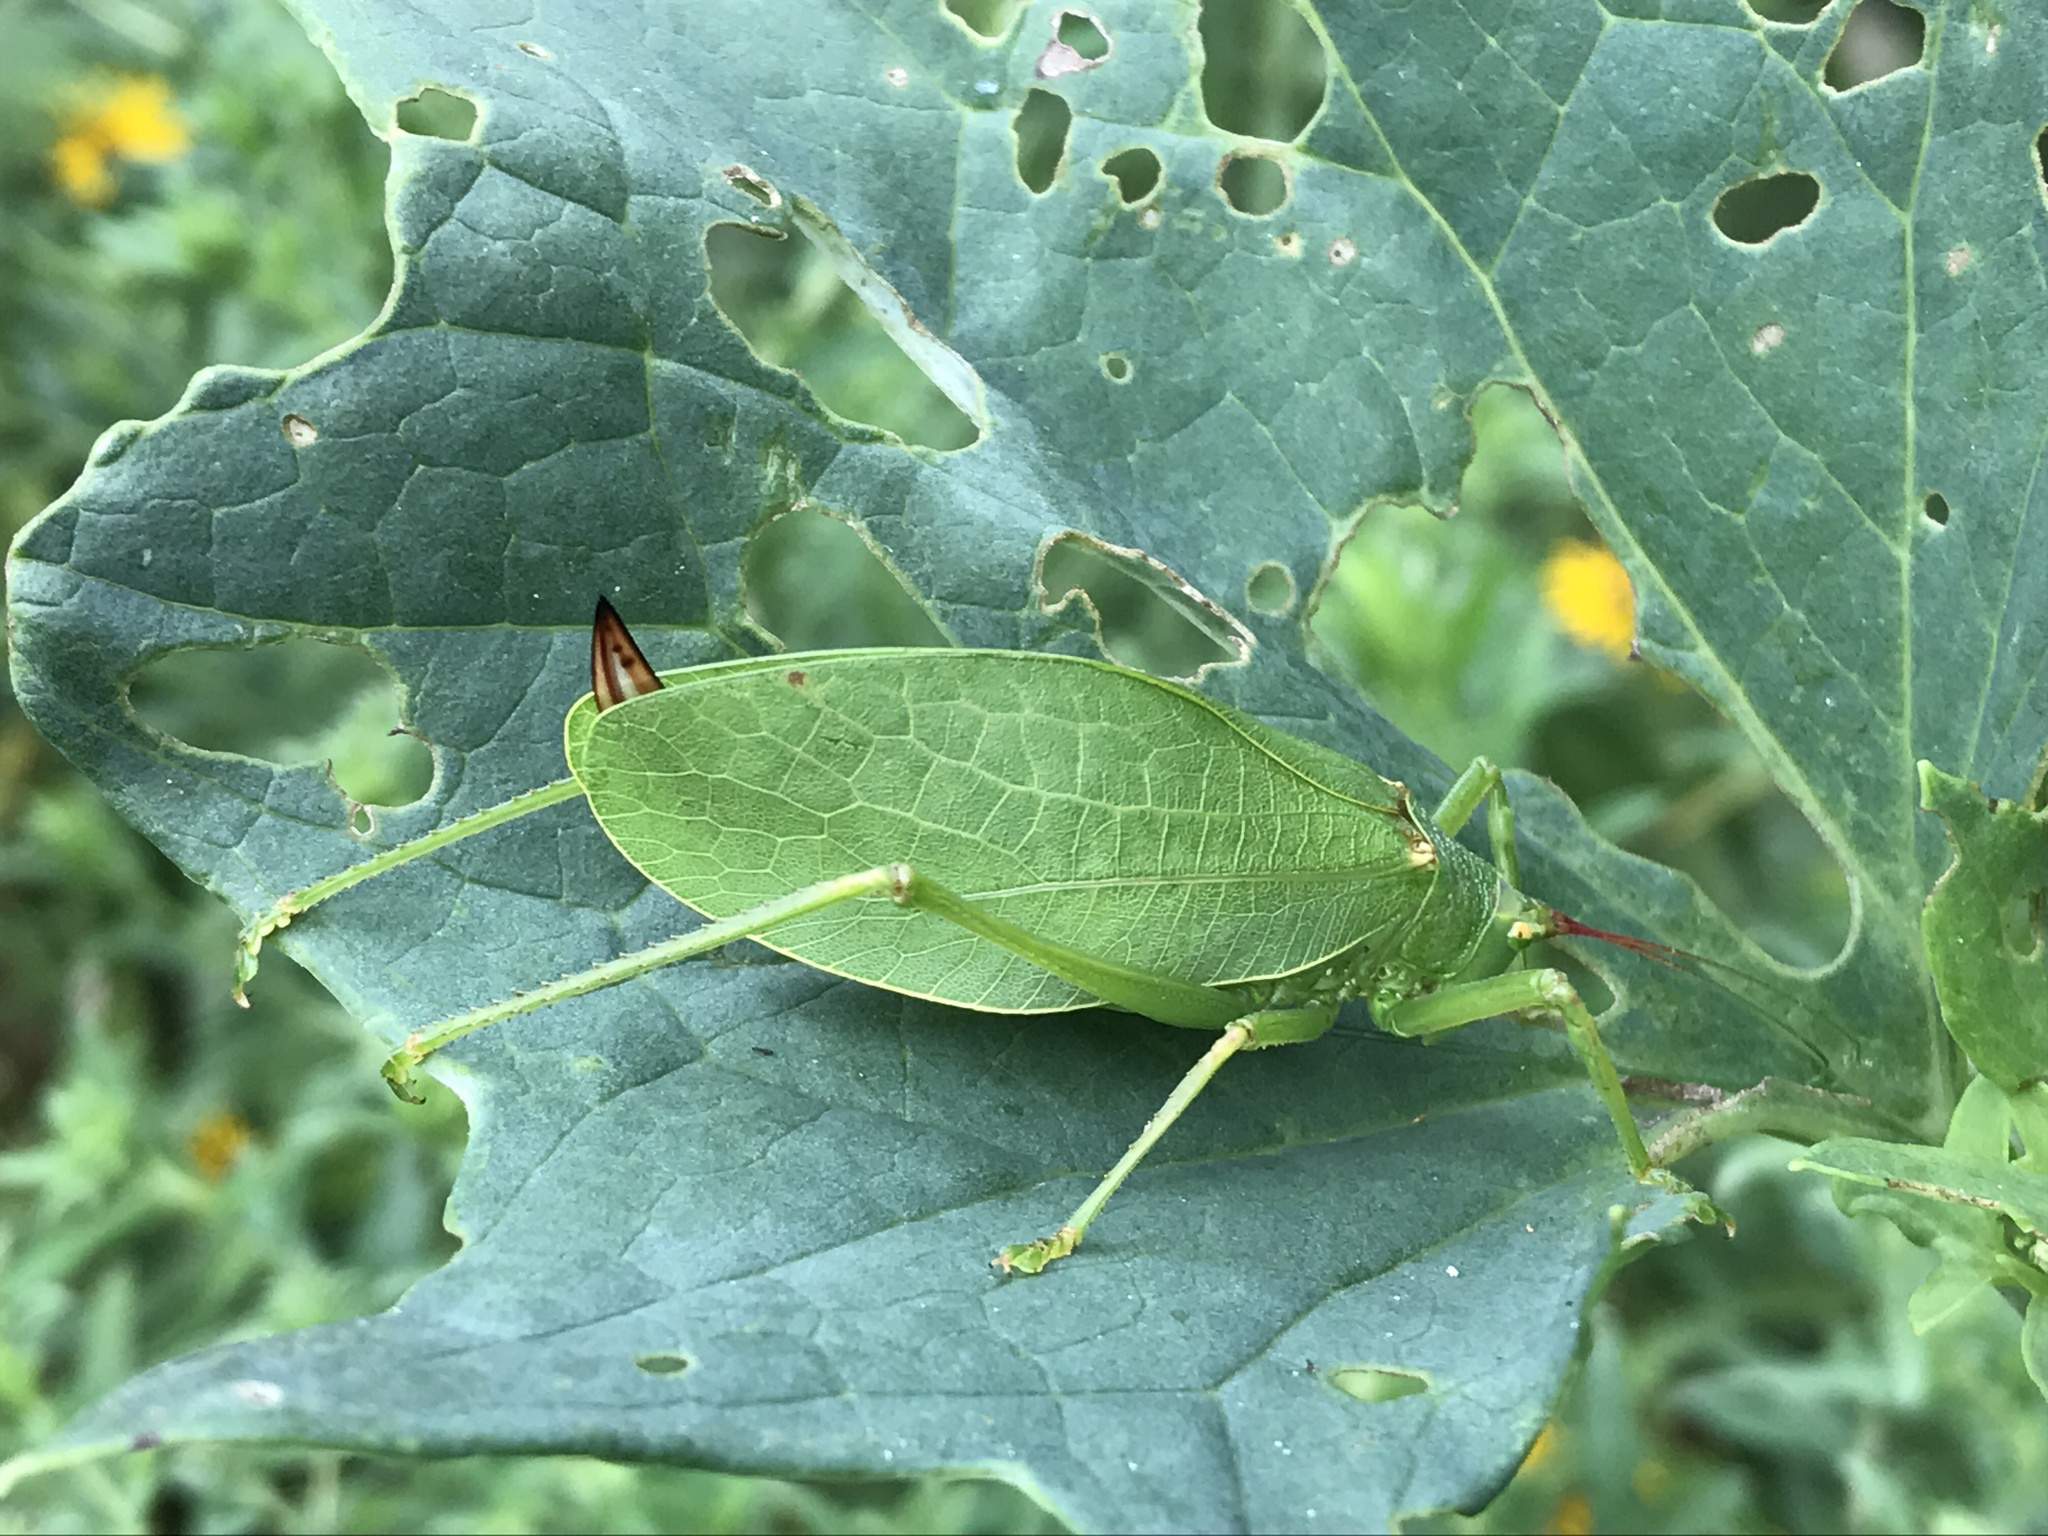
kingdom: Animalia
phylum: Arthropoda
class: Insecta
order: Orthoptera
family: Tettigoniidae
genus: Pterophylla
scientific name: Pterophylla camellifolia
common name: Common true katydid
